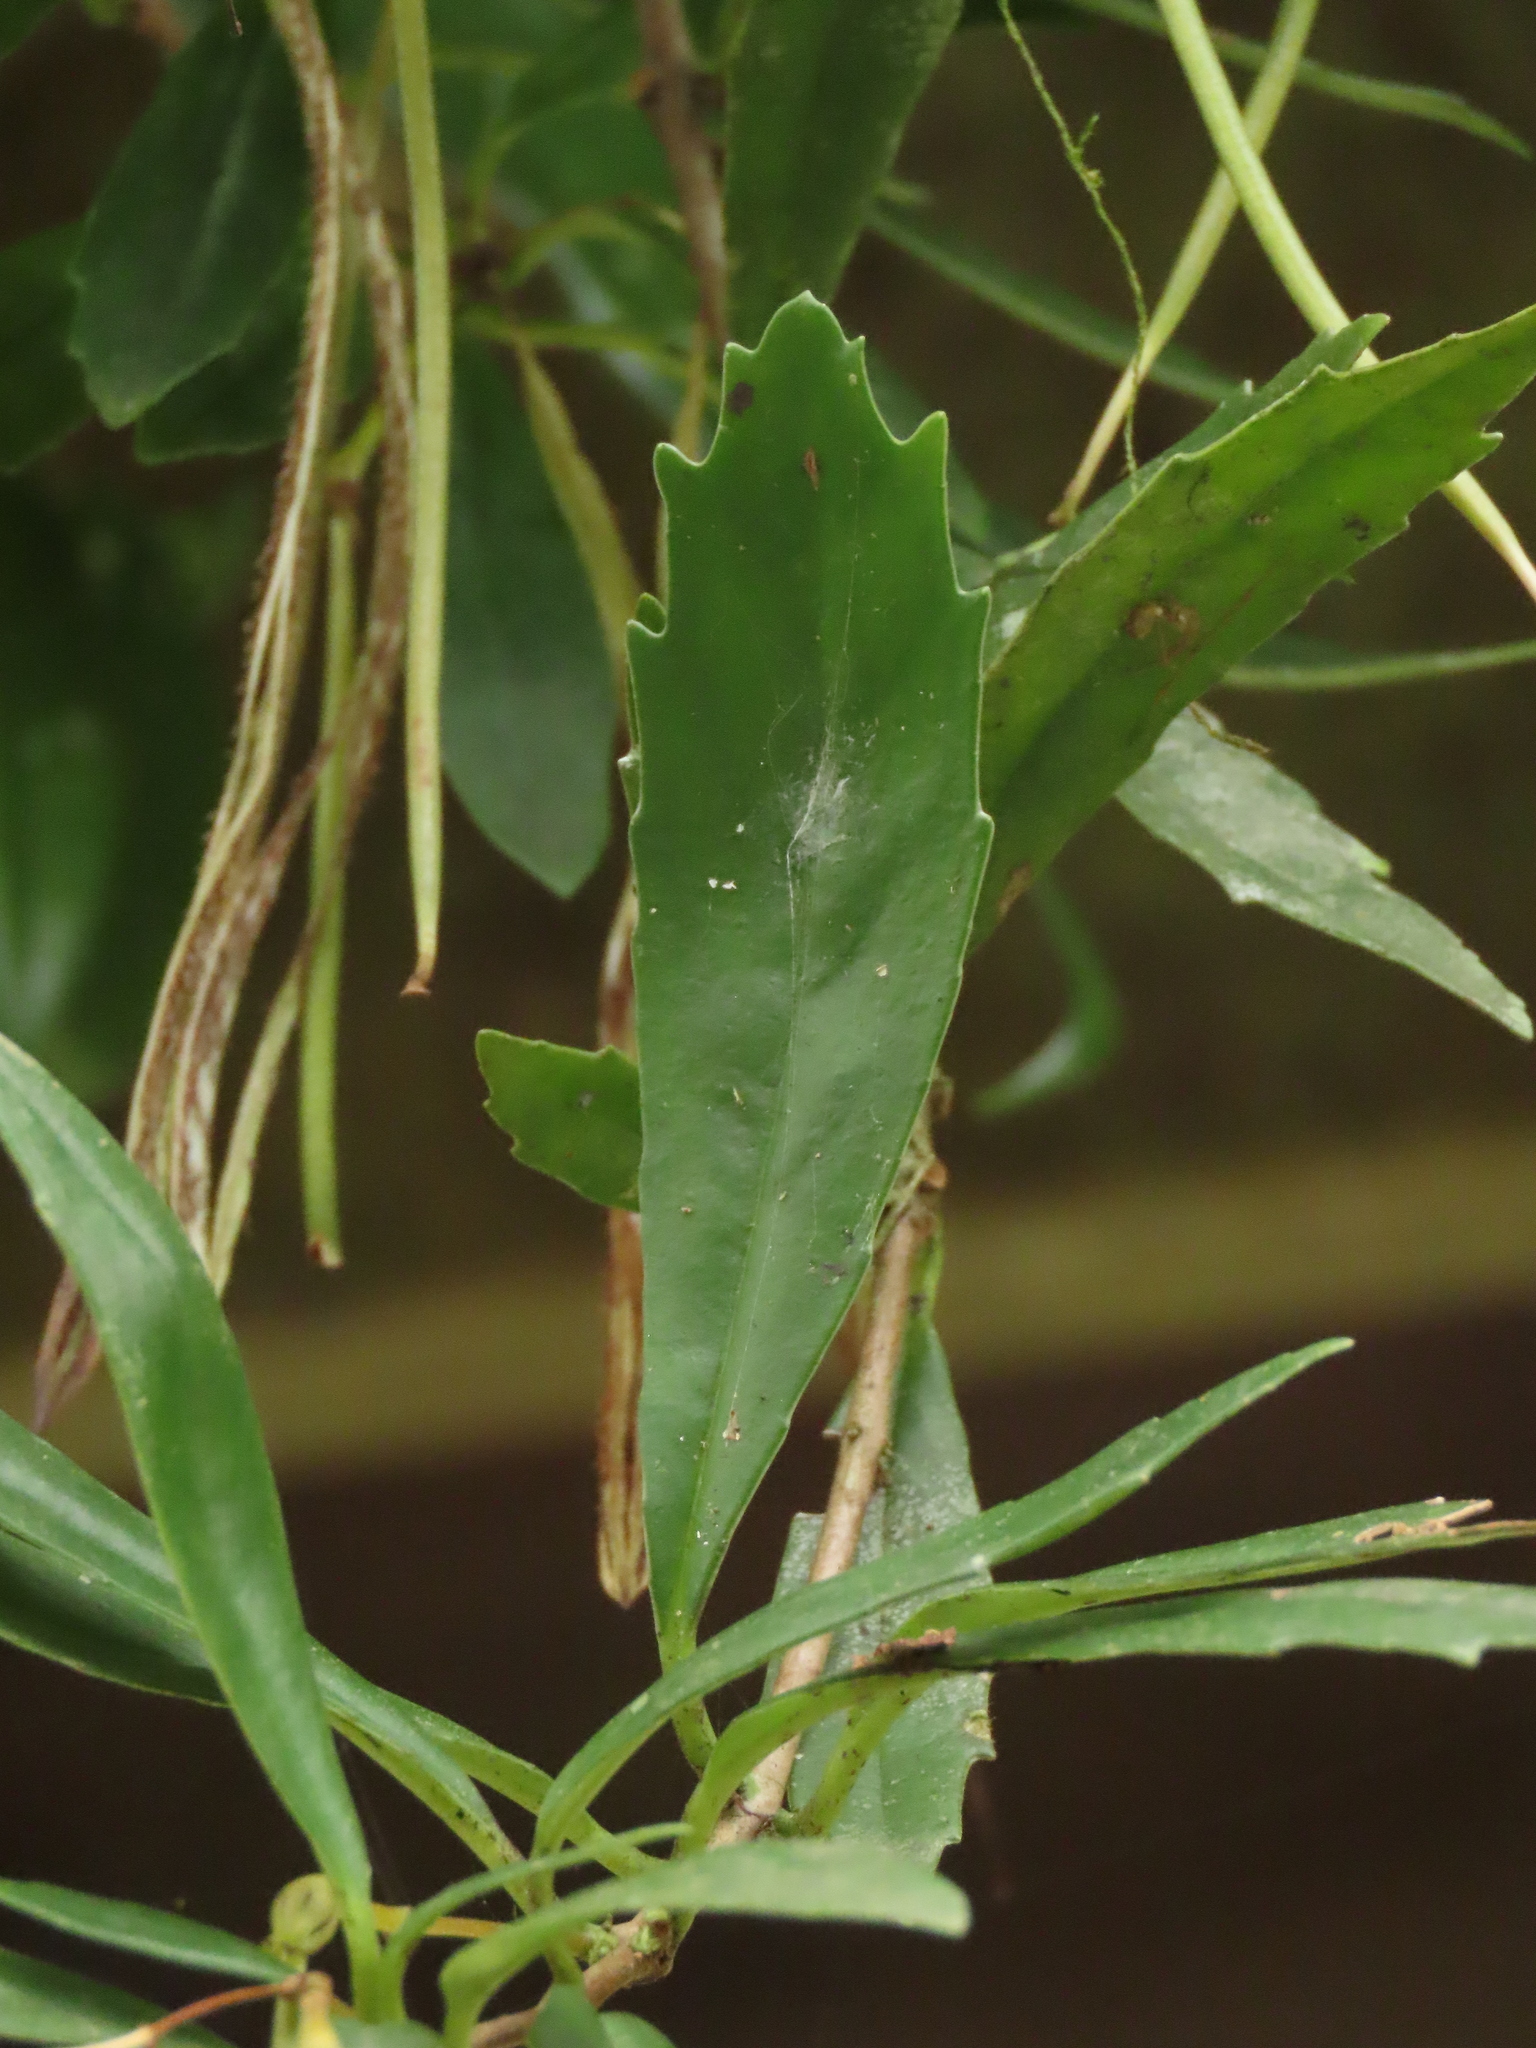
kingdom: Plantae
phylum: Tracheophyta
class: Magnoliopsida
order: Lamiales
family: Gesneriaceae
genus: Lysionotus
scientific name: Lysionotus pauciflorus
